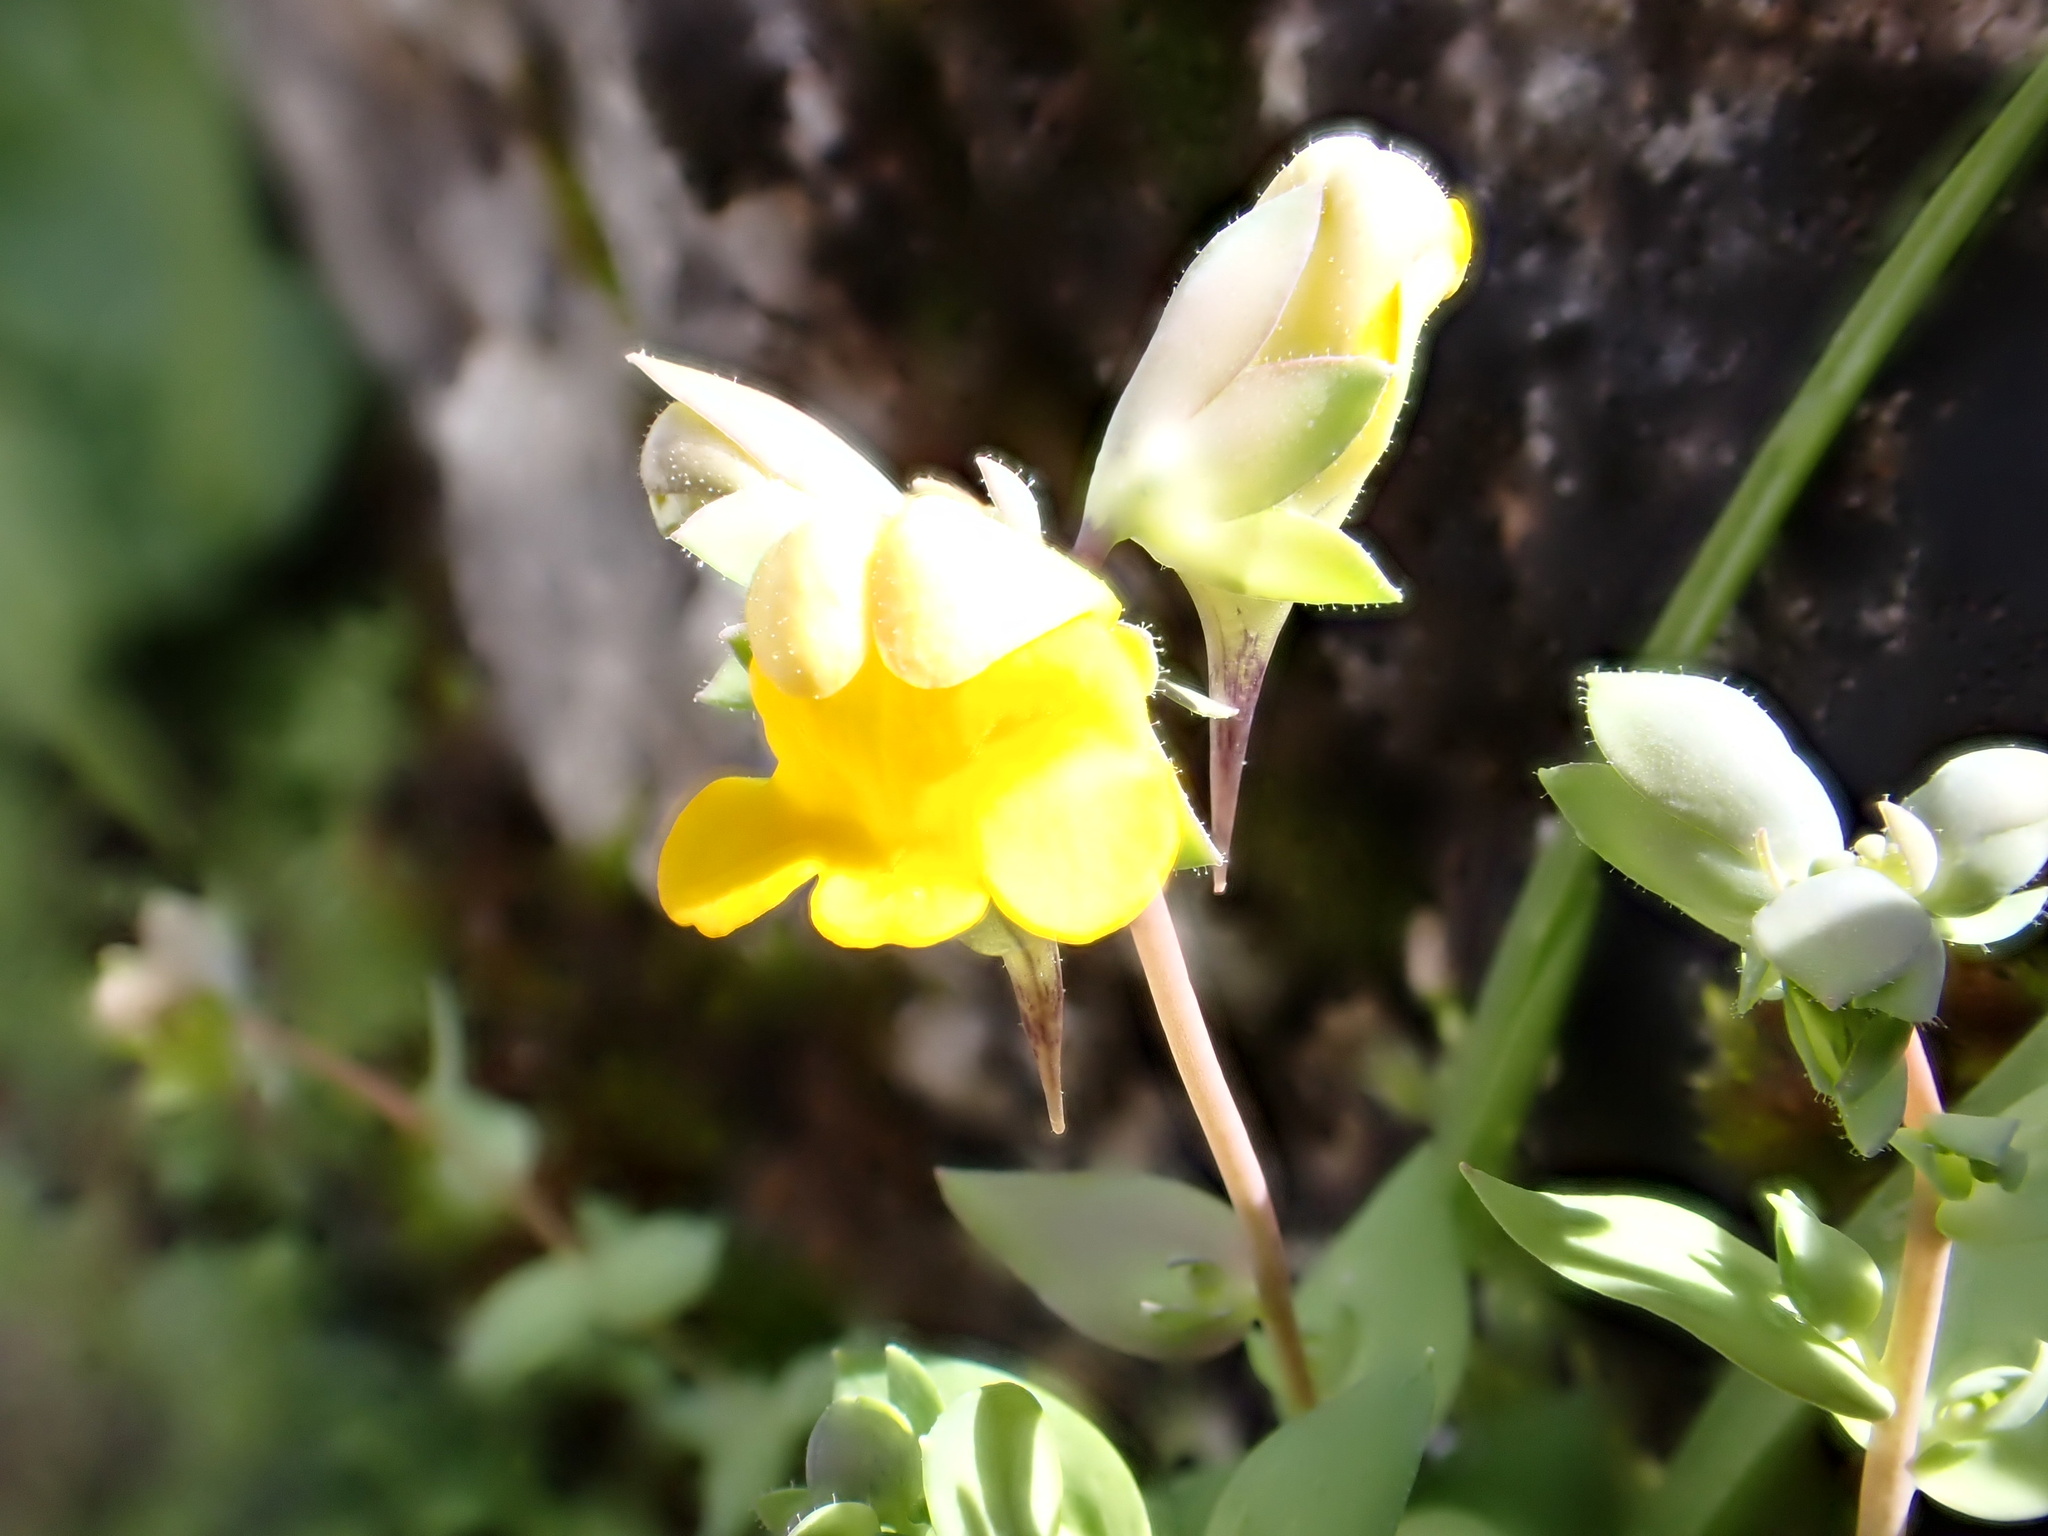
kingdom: Plantae
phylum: Tracheophyta
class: Magnoliopsida
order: Lamiales
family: Plantaginaceae
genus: Linaria
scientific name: Linaria platycalyx
